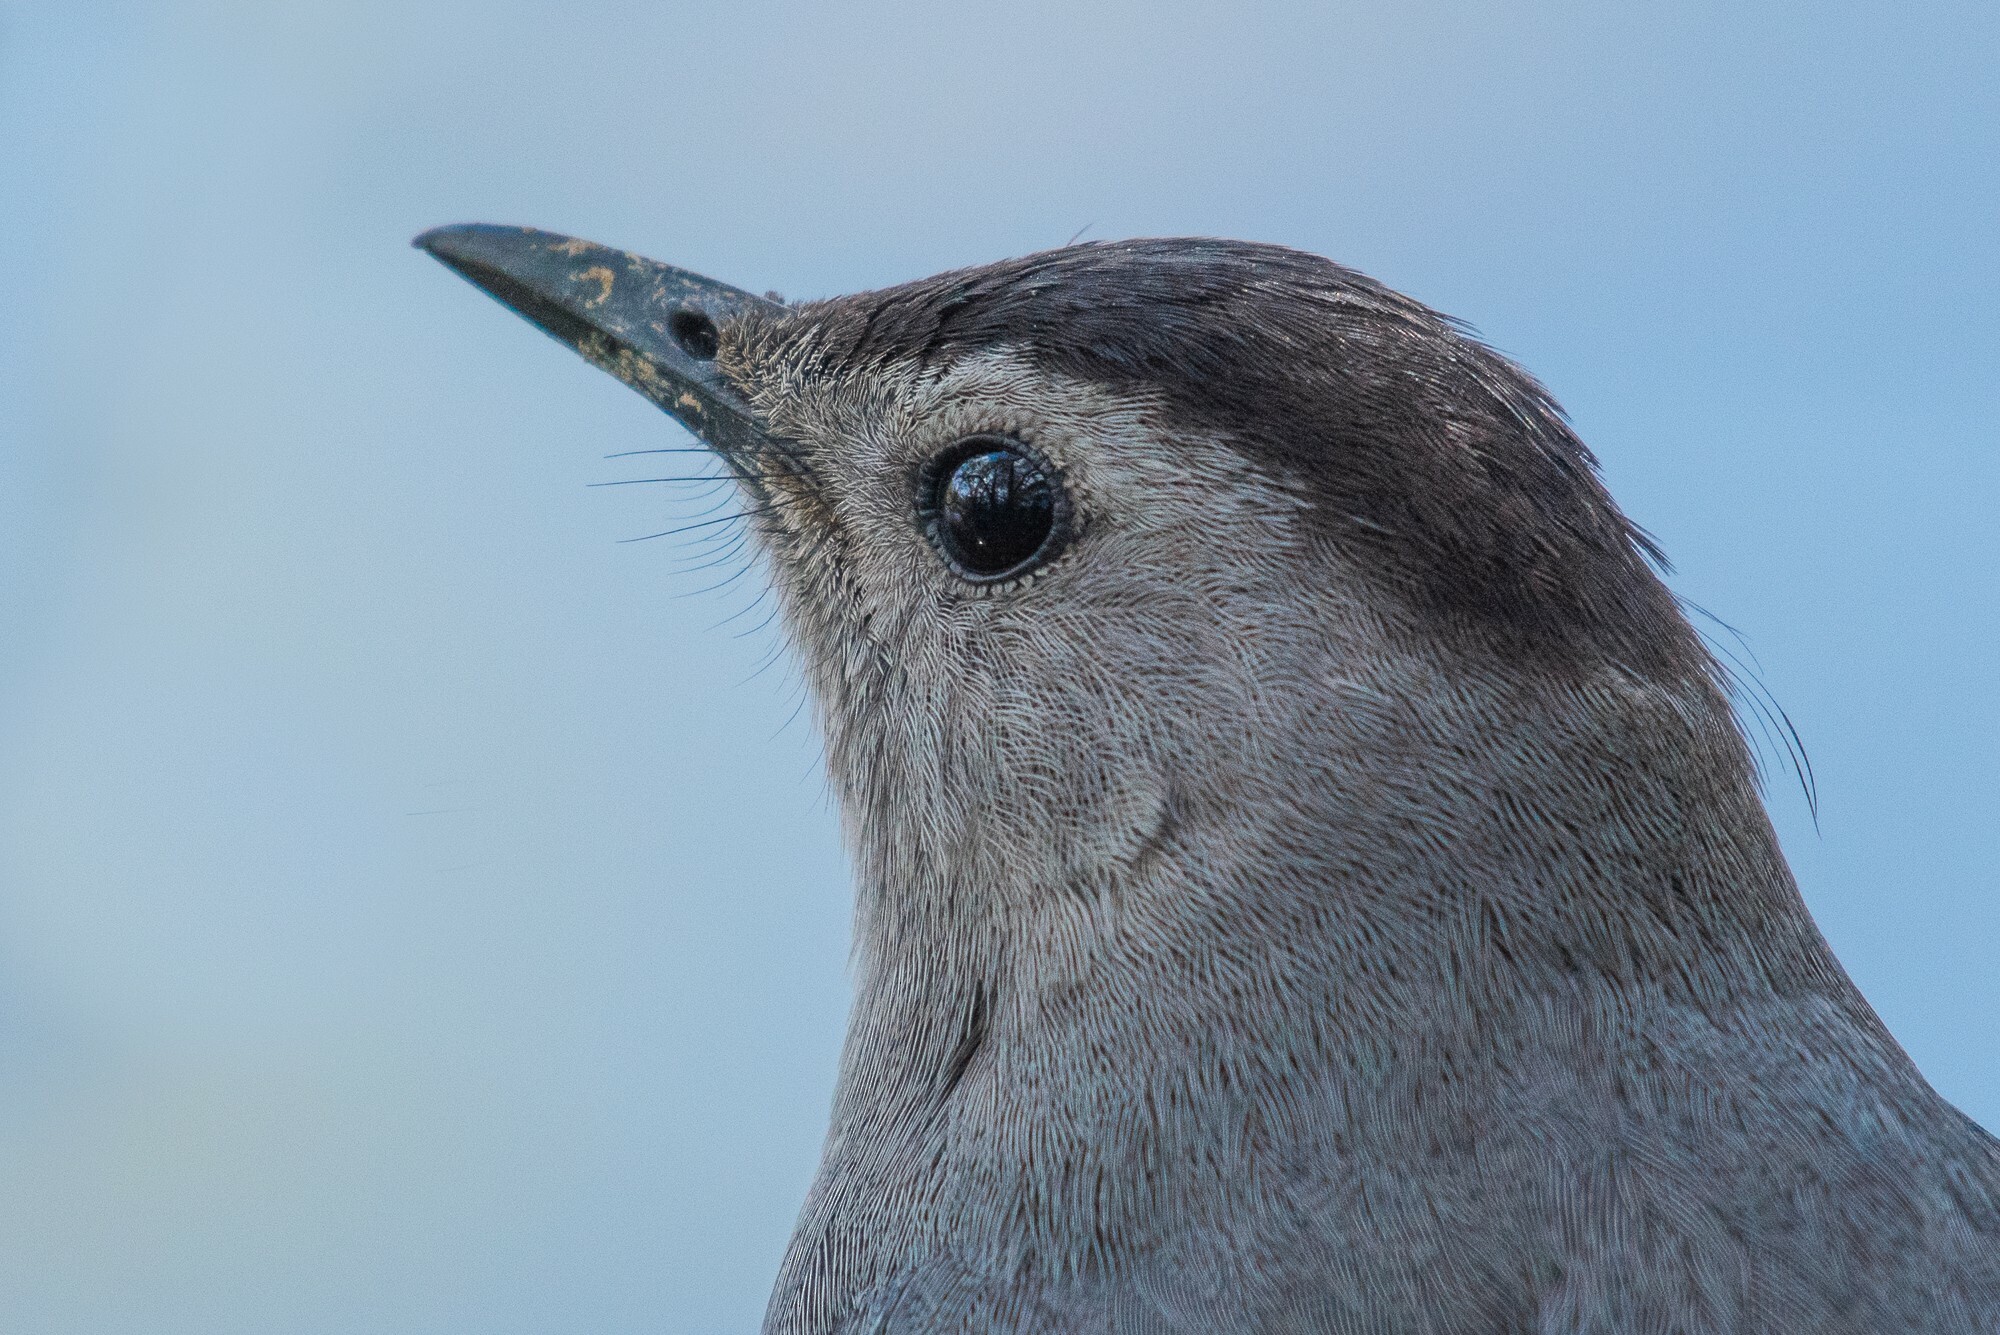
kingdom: Animalia
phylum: Chordata
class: Aves
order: Passeriformes
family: Mimidae
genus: Dumetella
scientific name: Dumetella carolinensis
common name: Gray catbird
